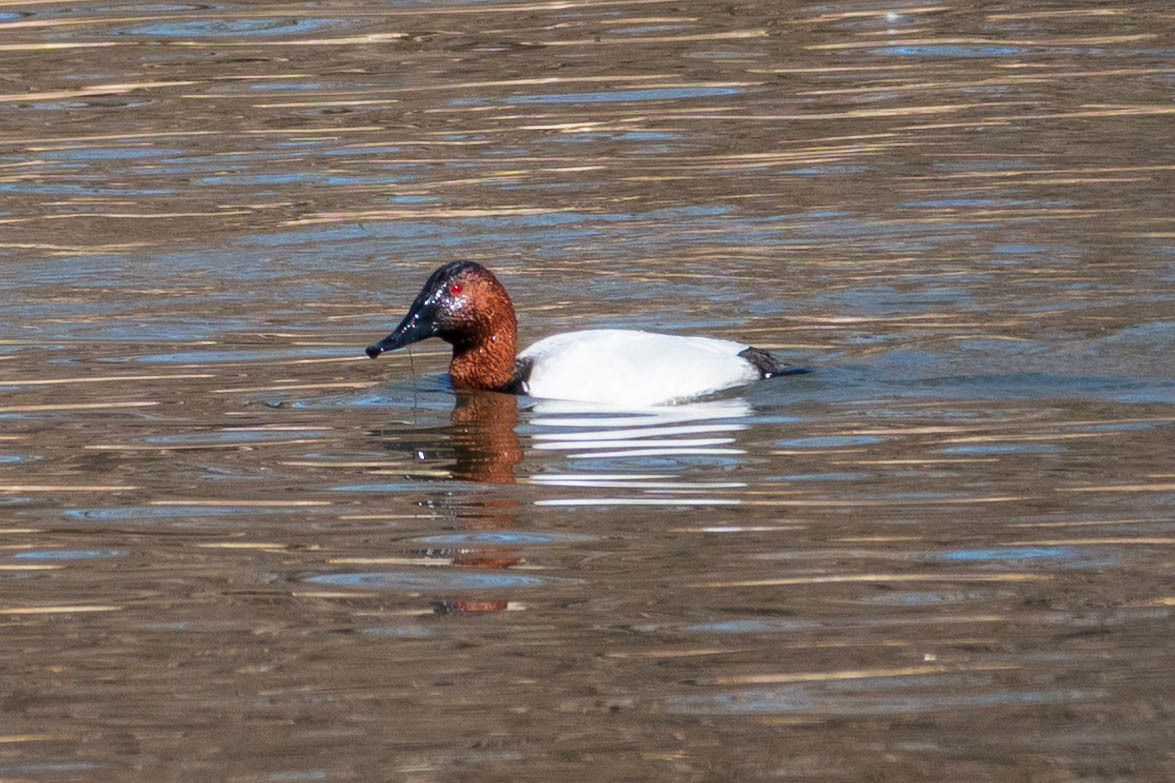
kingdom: Animalia
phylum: Chordata
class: Aves
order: Anseriformes
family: Anatidae
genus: Aythya
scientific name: Aythya valisineria
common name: Canvasback
